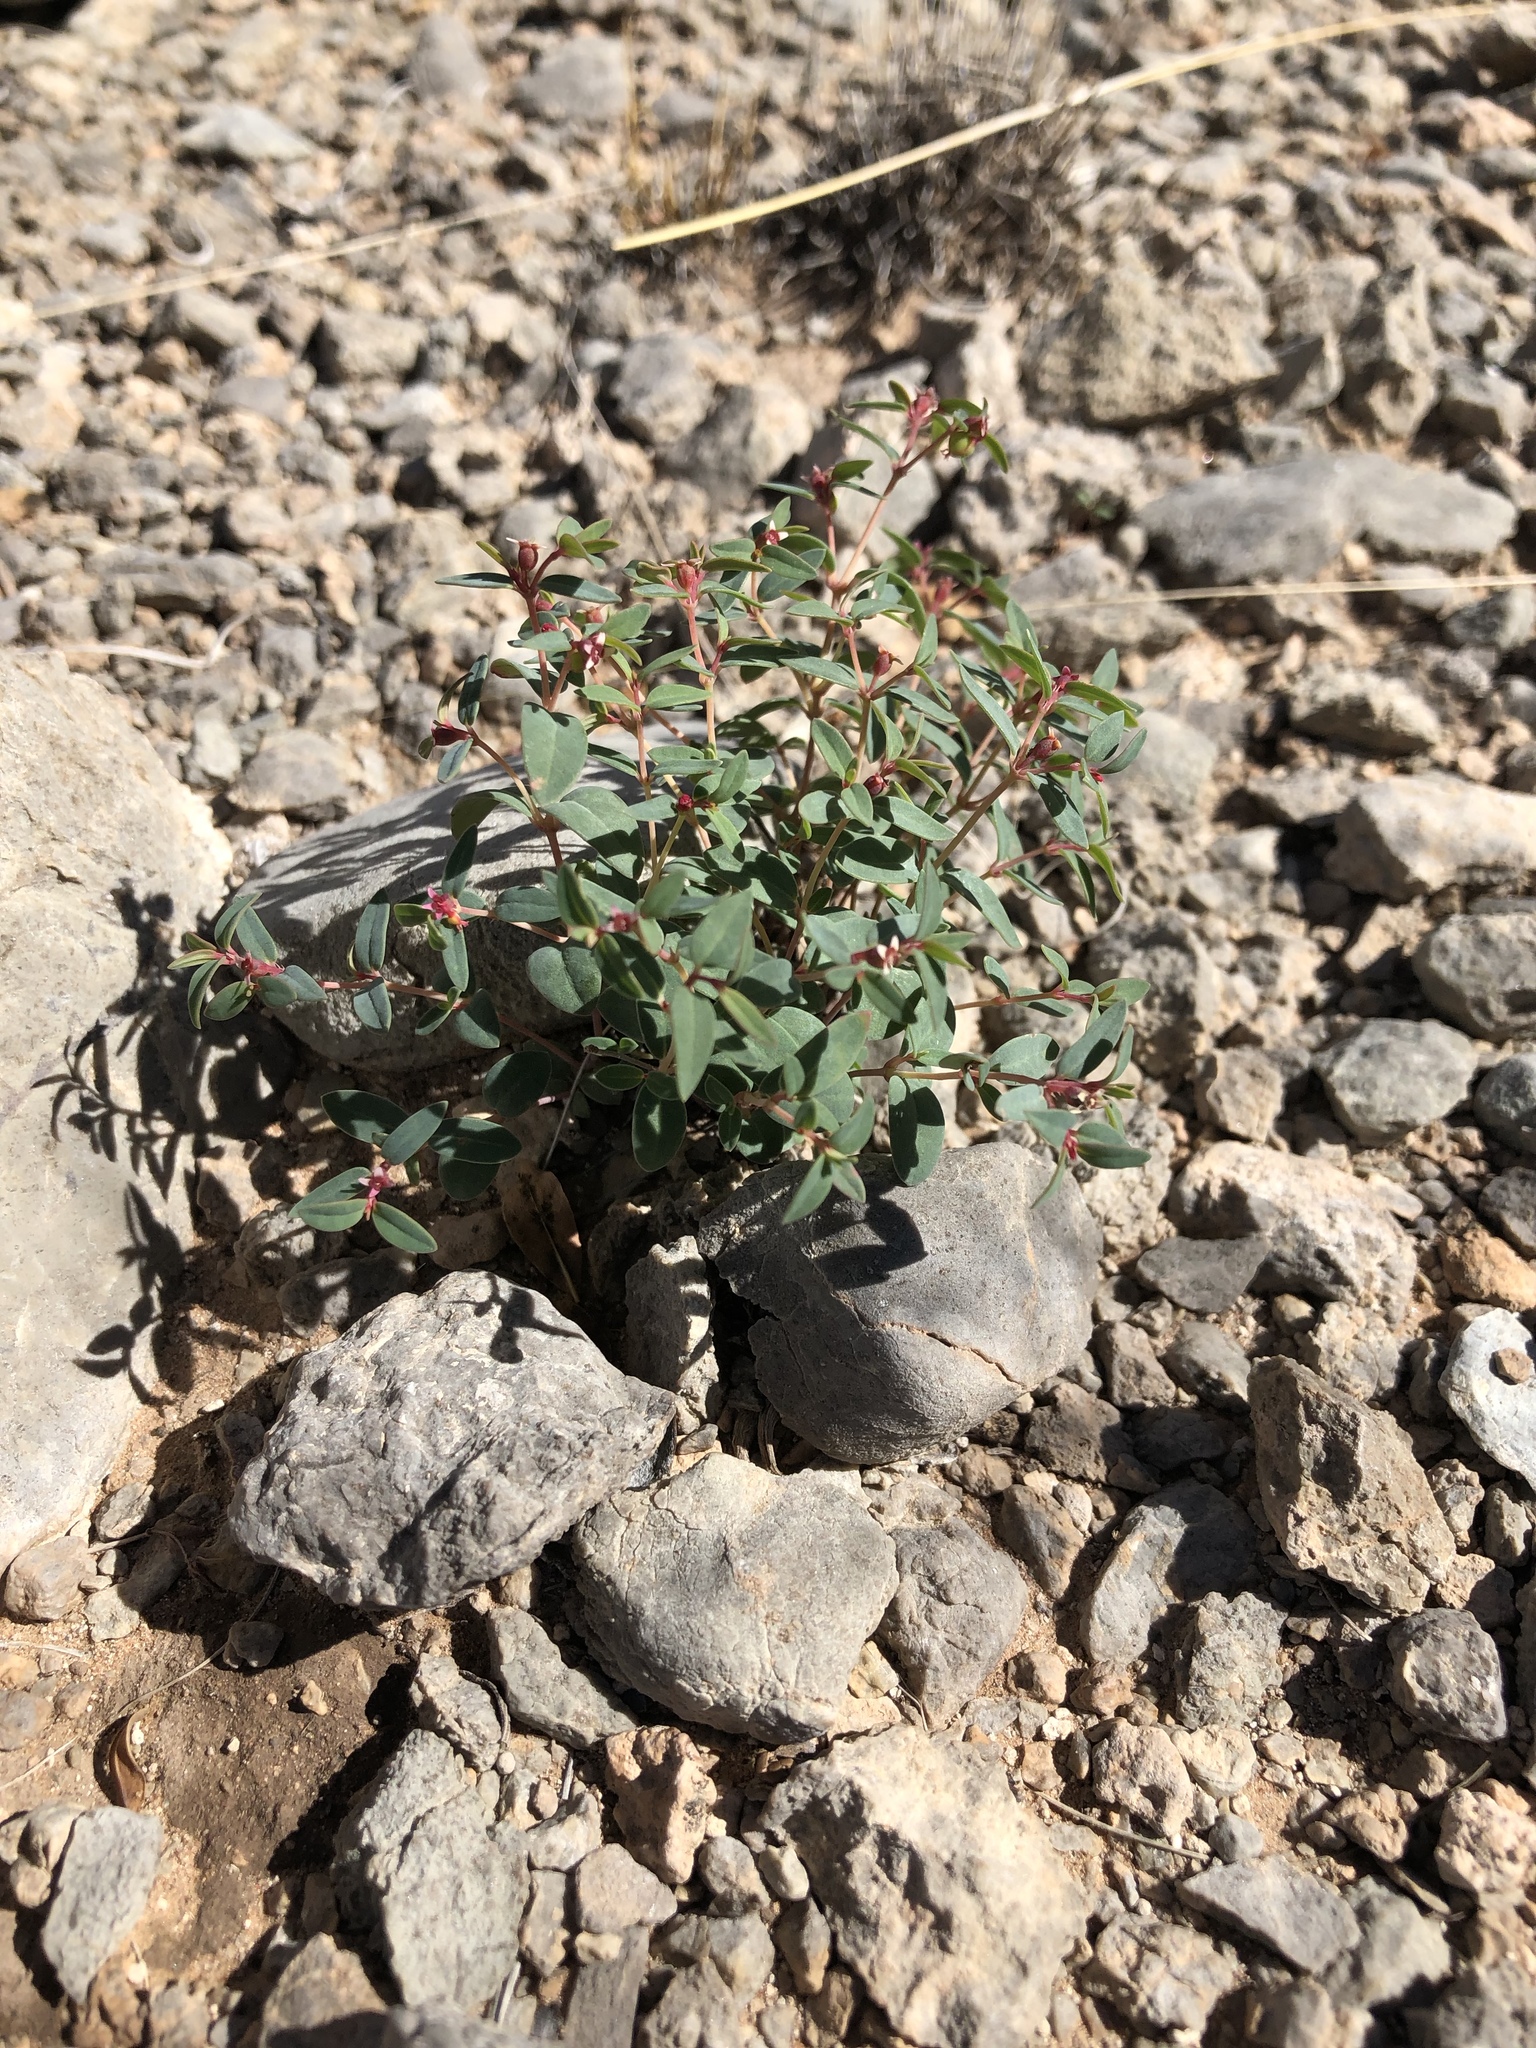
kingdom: Plantae
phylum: Tracheophyta
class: Magnoliopsida
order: Malpighiales
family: Euphorbiaceae
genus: Euphorbia
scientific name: Euphorbia chaetocalyx
